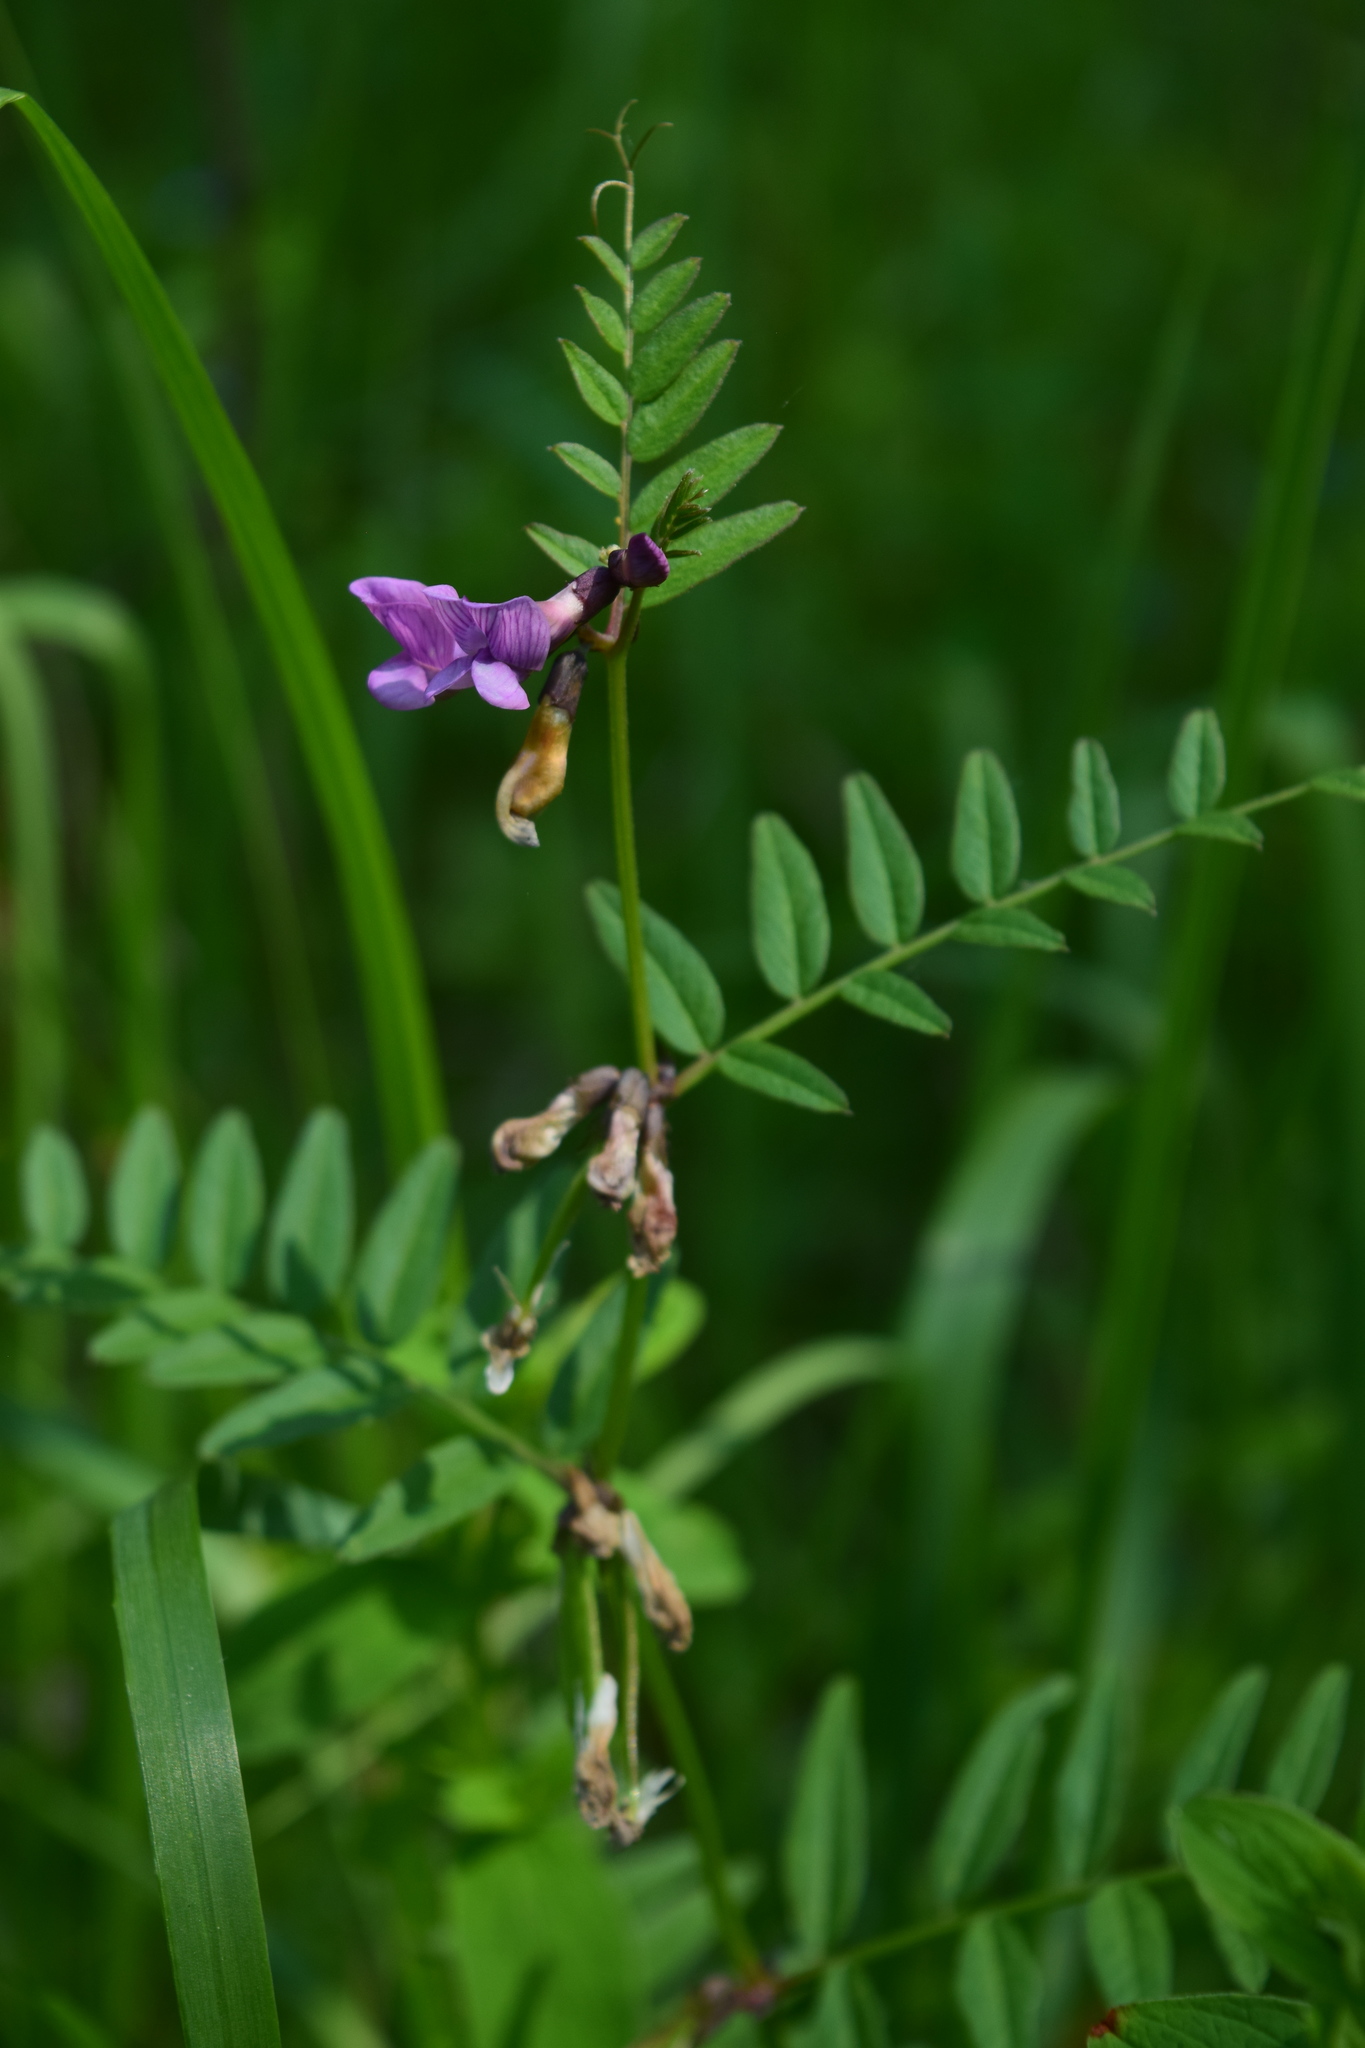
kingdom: Plantae
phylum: Tracheophyta
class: Magnoliopsida
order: Fabales
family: Fabaceae
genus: Vicia
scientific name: Vicia sepium
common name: Bush vetch
